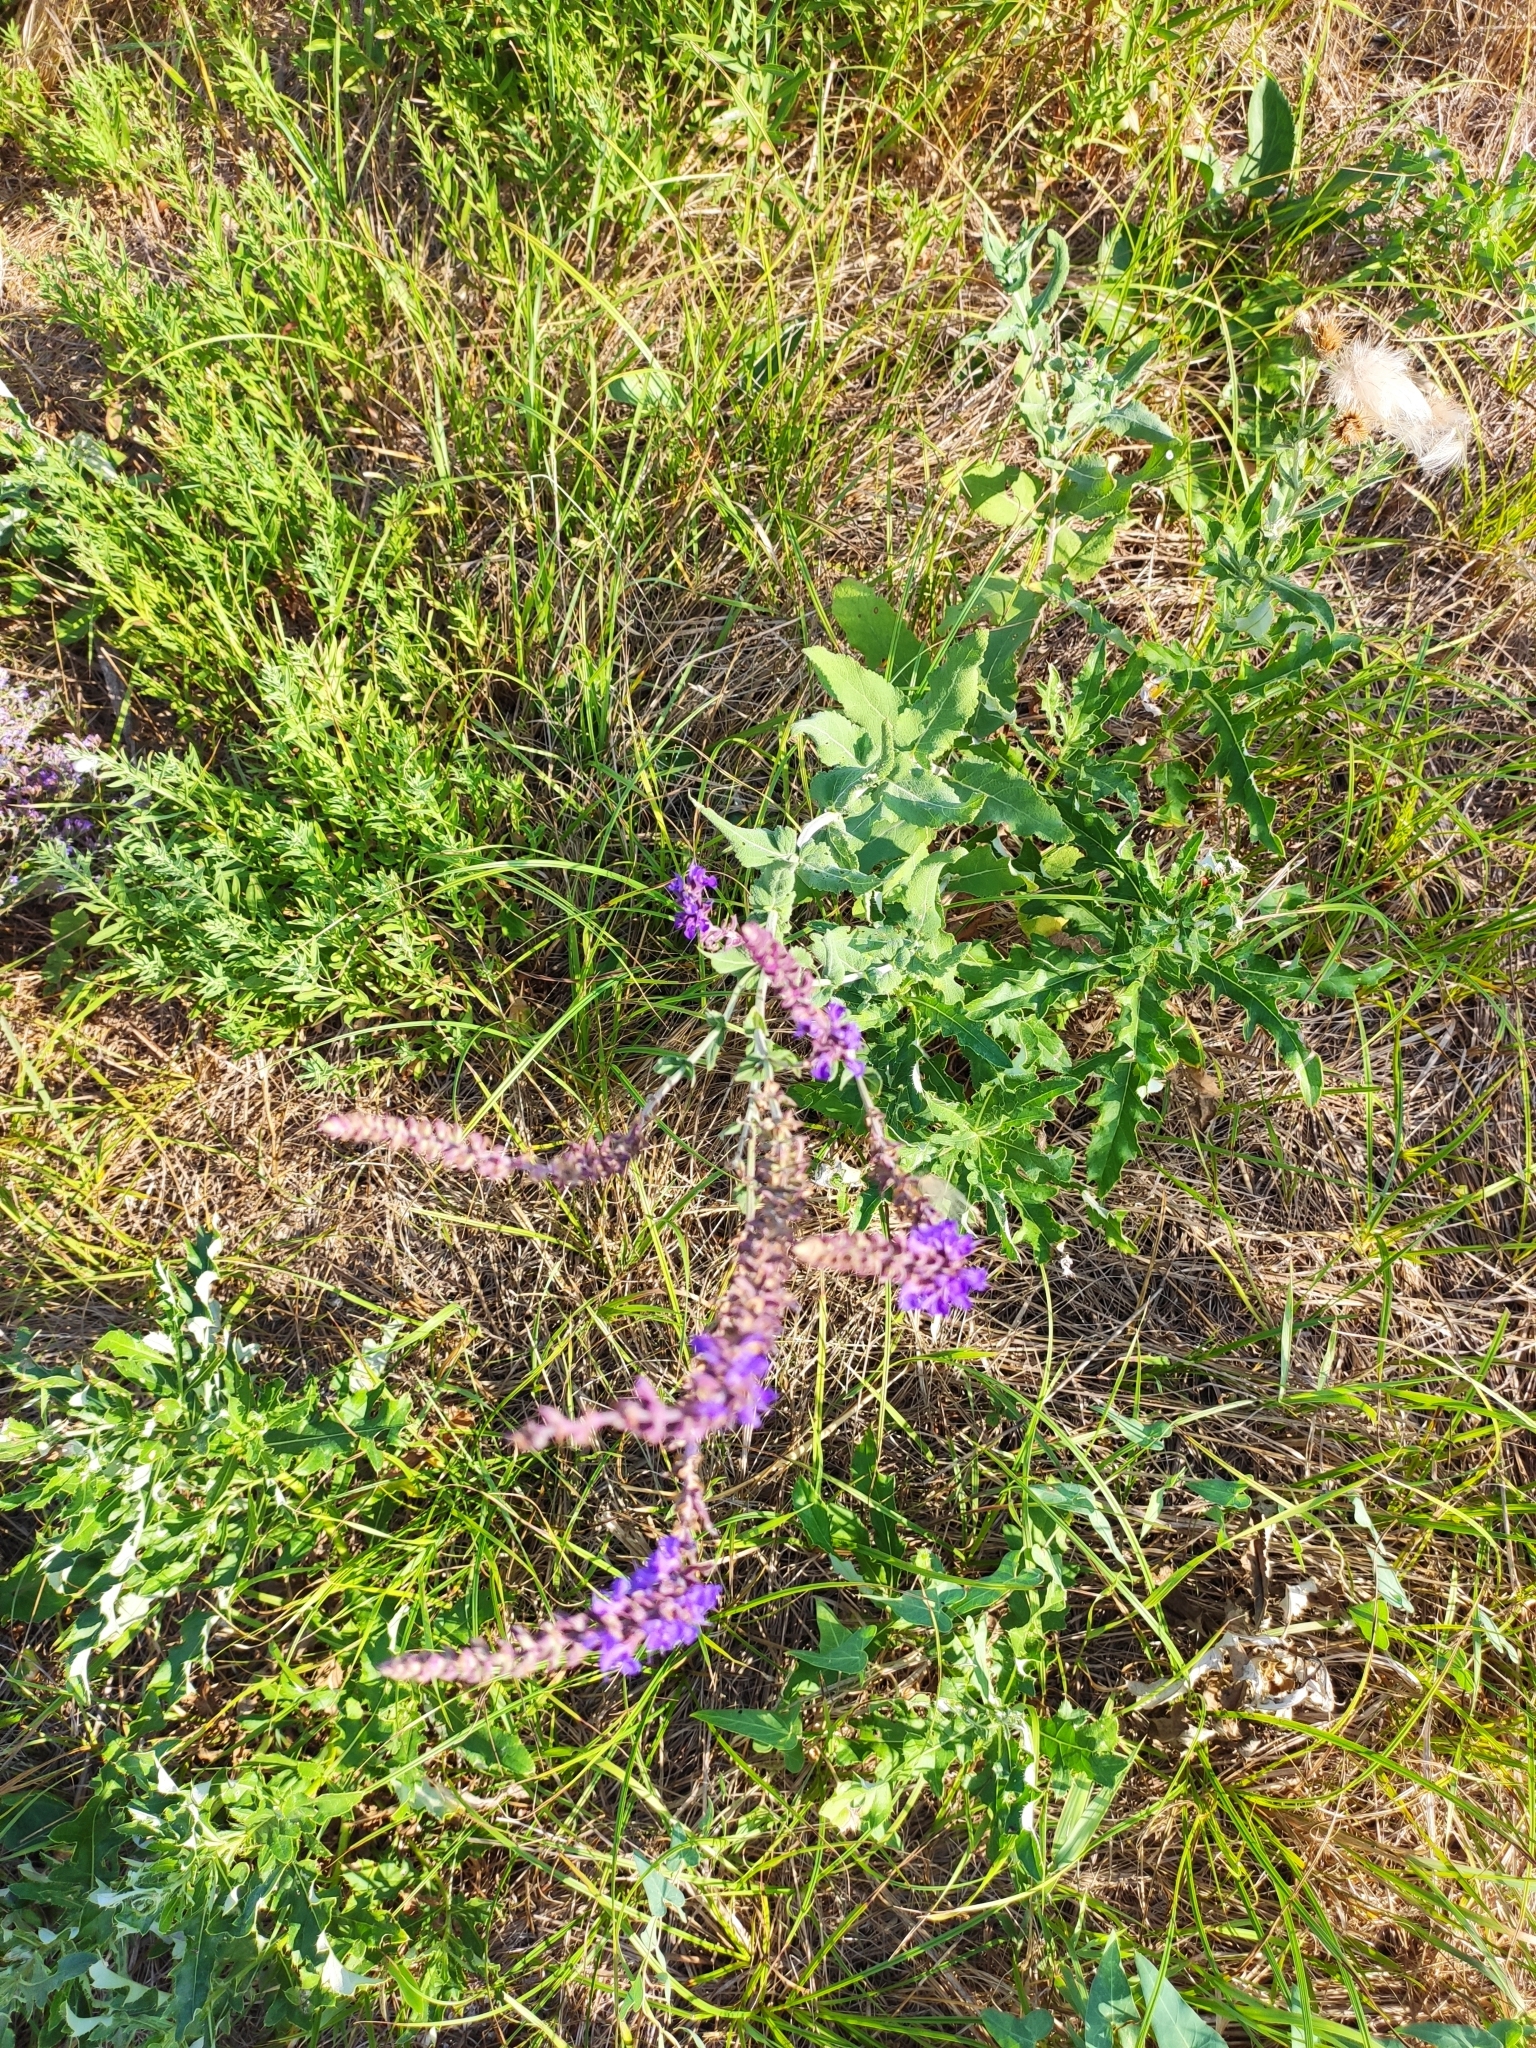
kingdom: Plantae
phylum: Tracheophyta
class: Magnoliopsida
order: Lamiales
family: Lamiaceae
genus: Salvia
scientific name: Salvia nemorosa
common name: Balkan clary
